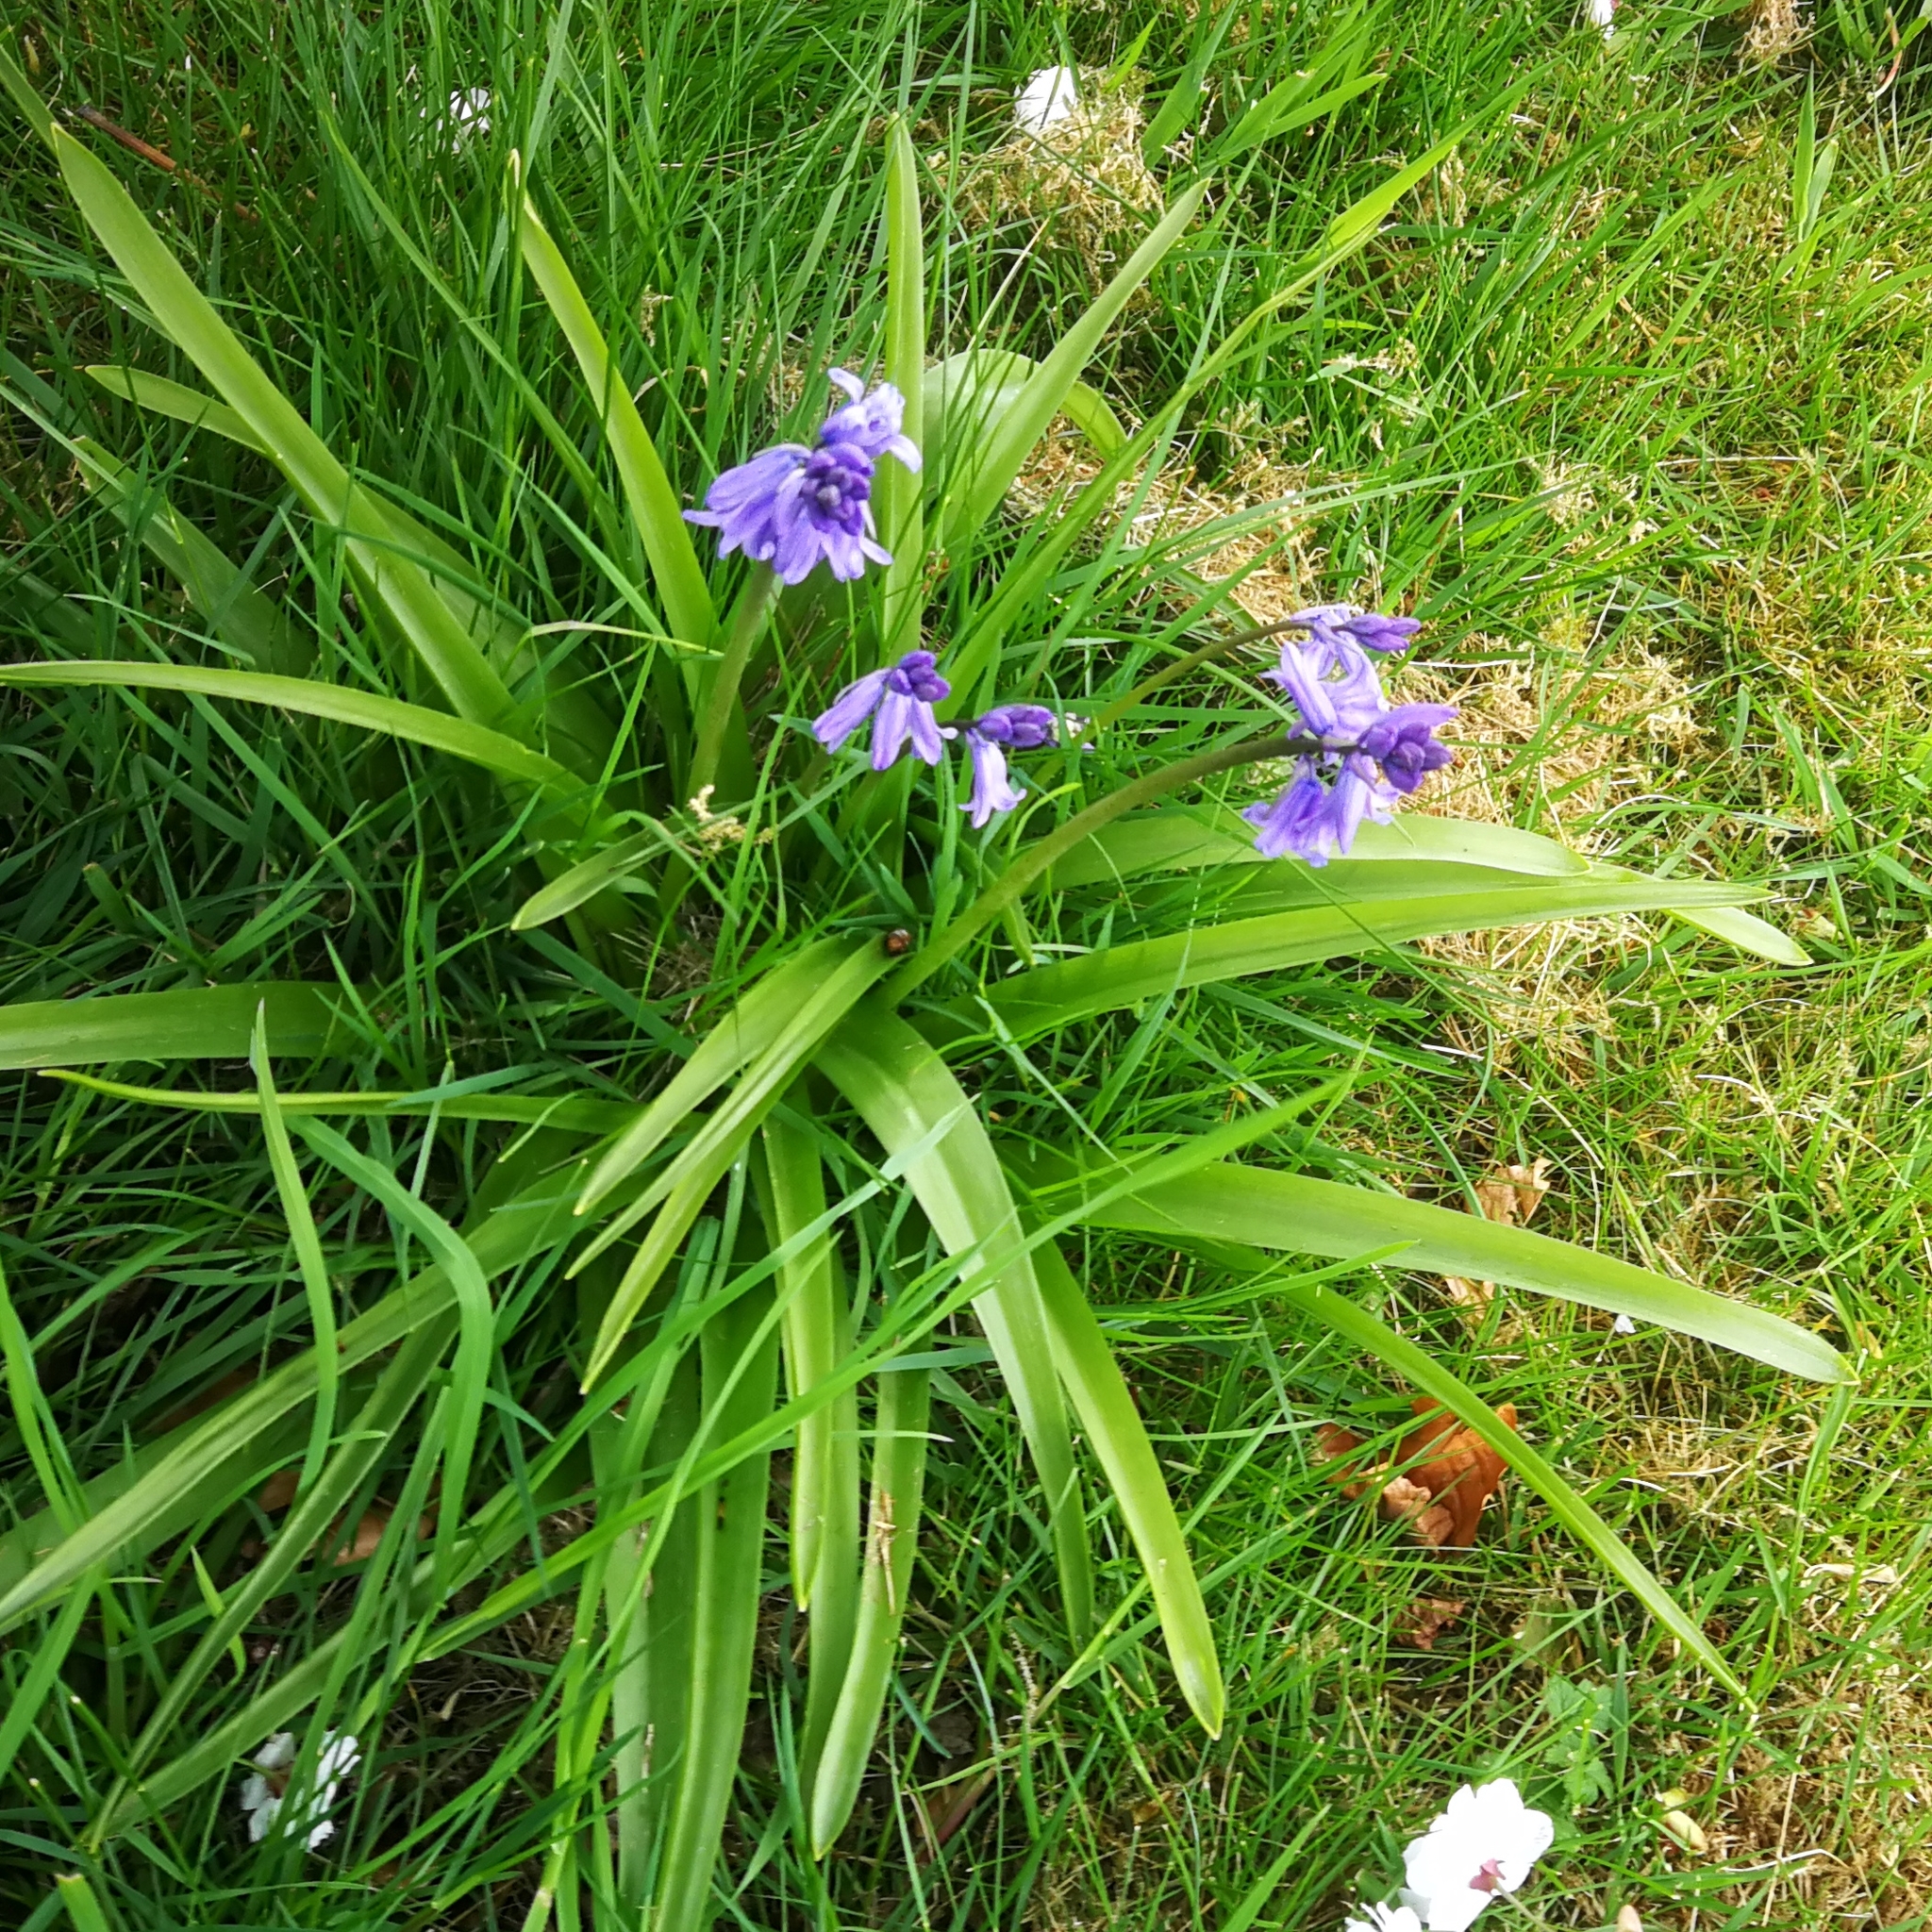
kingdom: Plantae
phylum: Tracheophyta
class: Liliopsida
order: Asparagales
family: Asparagaceae
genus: Hyacinthoides
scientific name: Hyacinthoides massartiana
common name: Hyacinthoides
